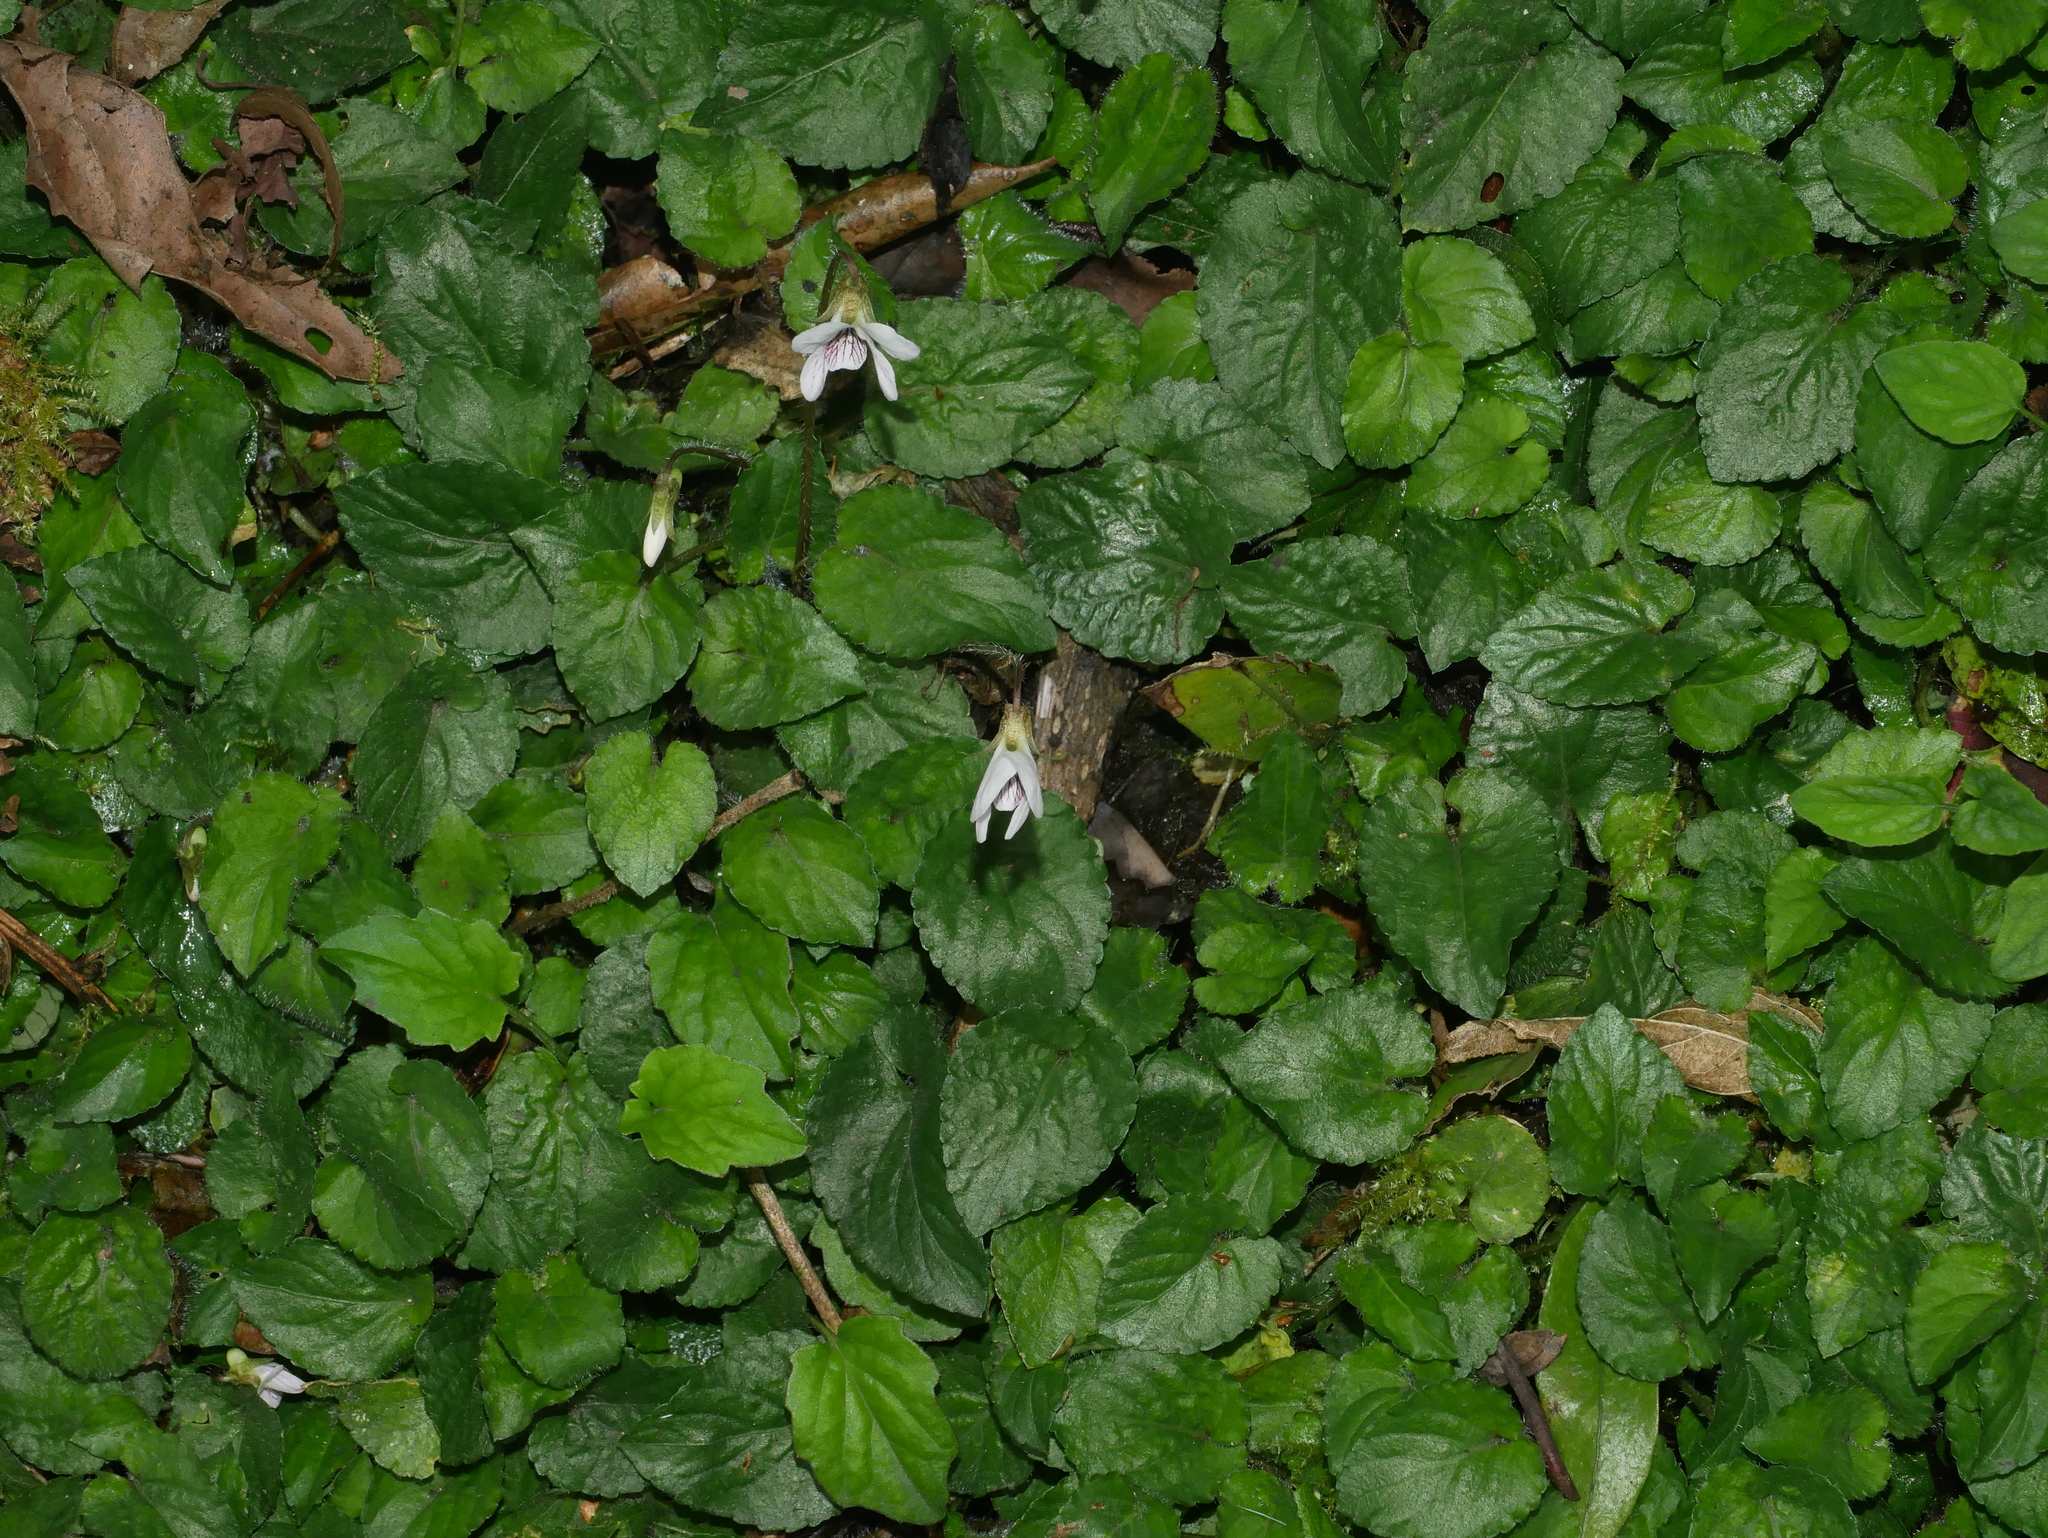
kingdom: Plantae
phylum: Tracheophyta
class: Magnoliopsida
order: Malpighiales
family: Violaceae
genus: Viola
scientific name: Viola adenothrix
